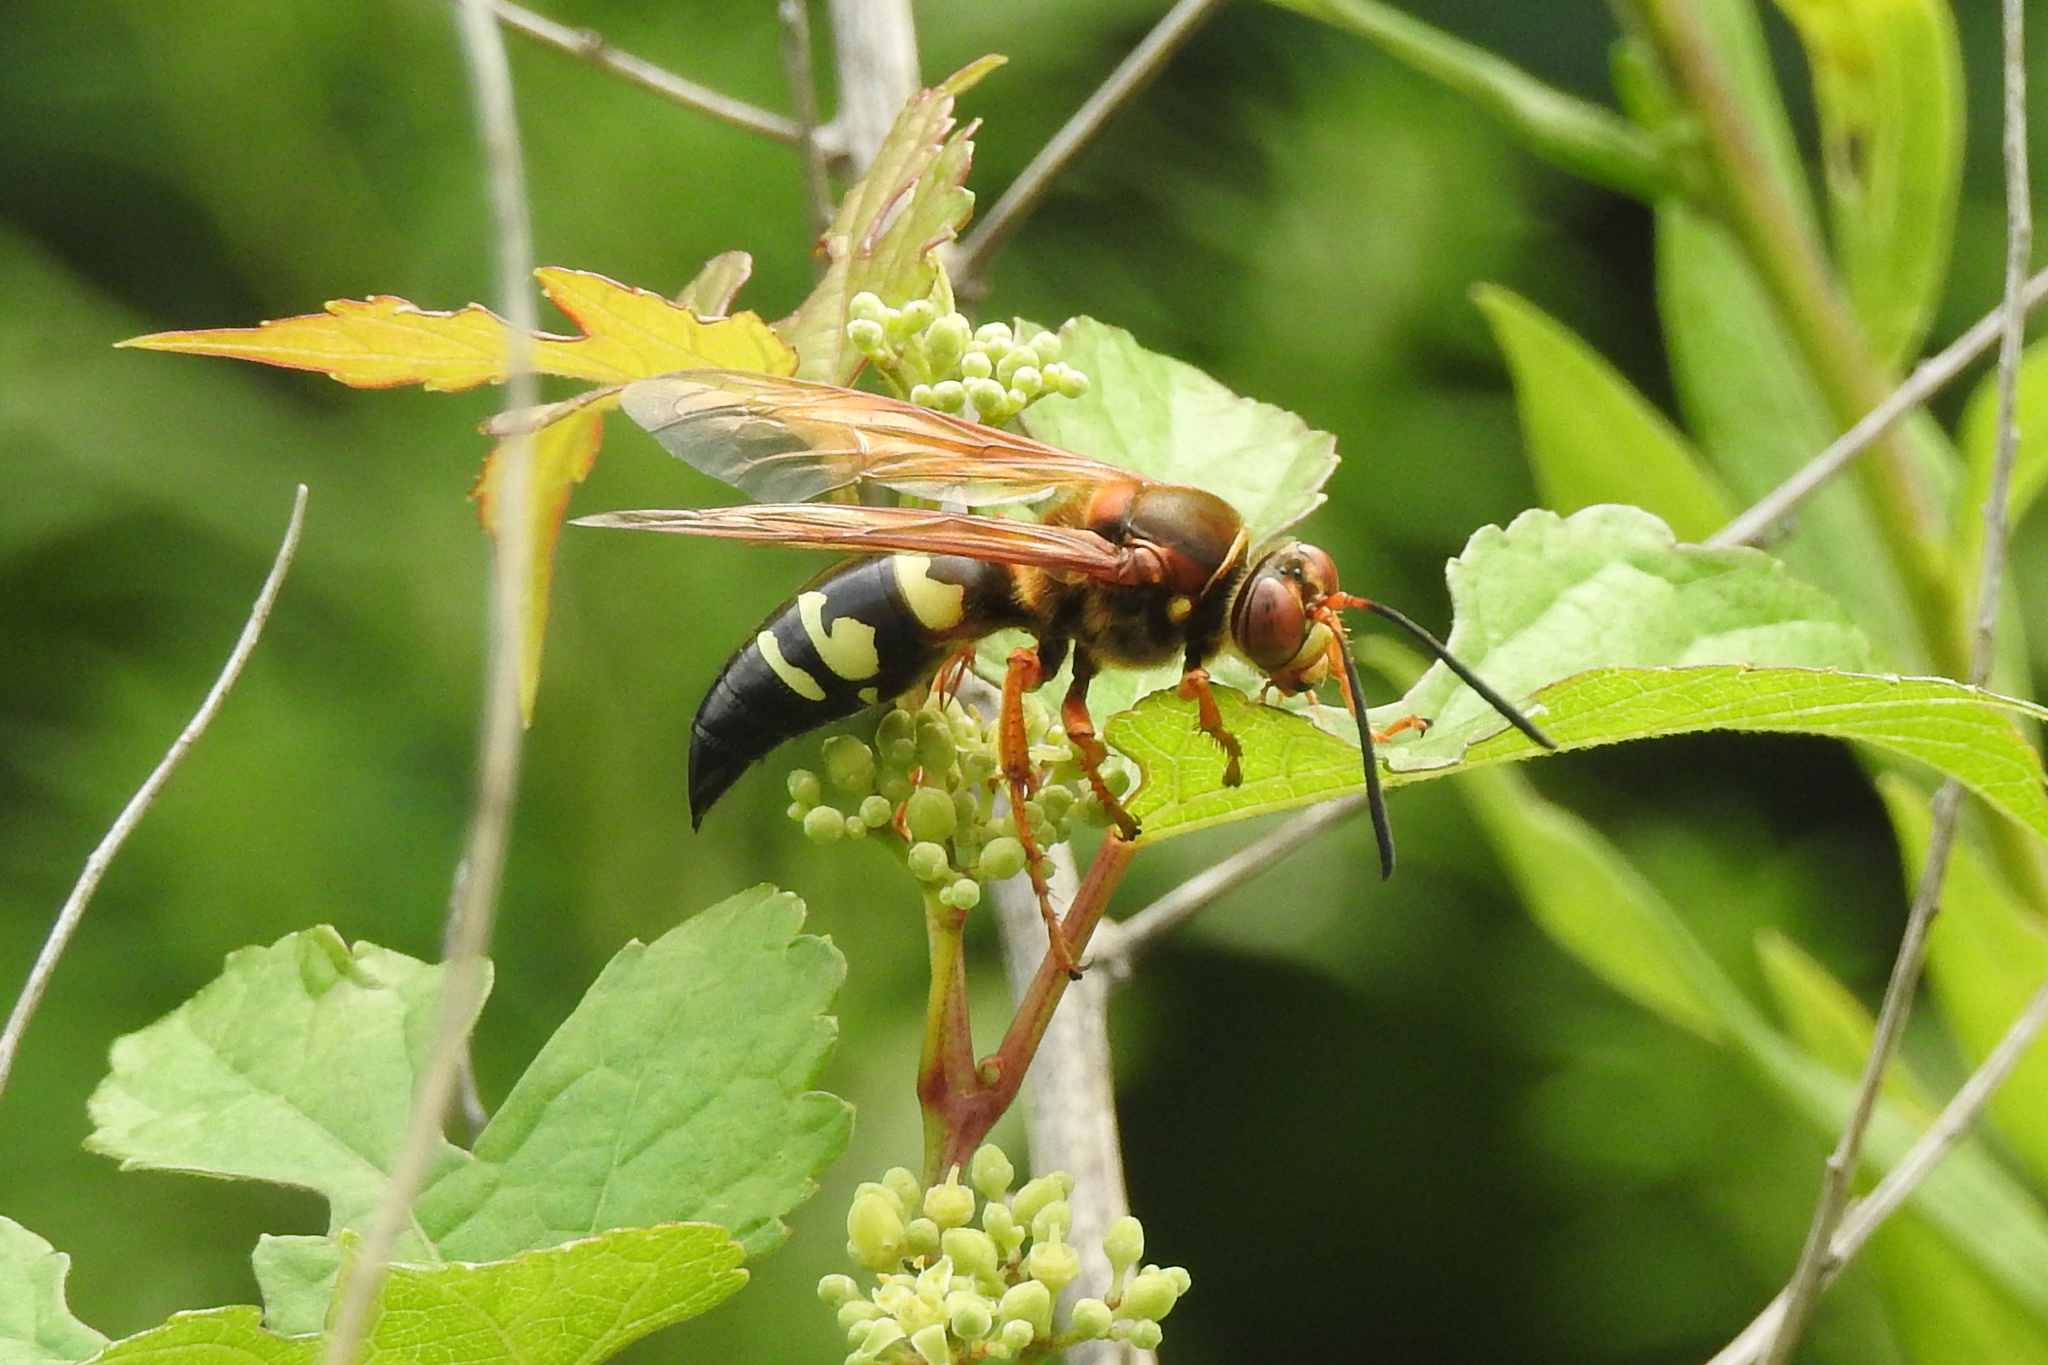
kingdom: Animalia
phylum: Arthropoda
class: Insecta
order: Hymenoptera
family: Crabronidae
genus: Sphecius
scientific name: Sphecius speciosus
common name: Cicada killer
